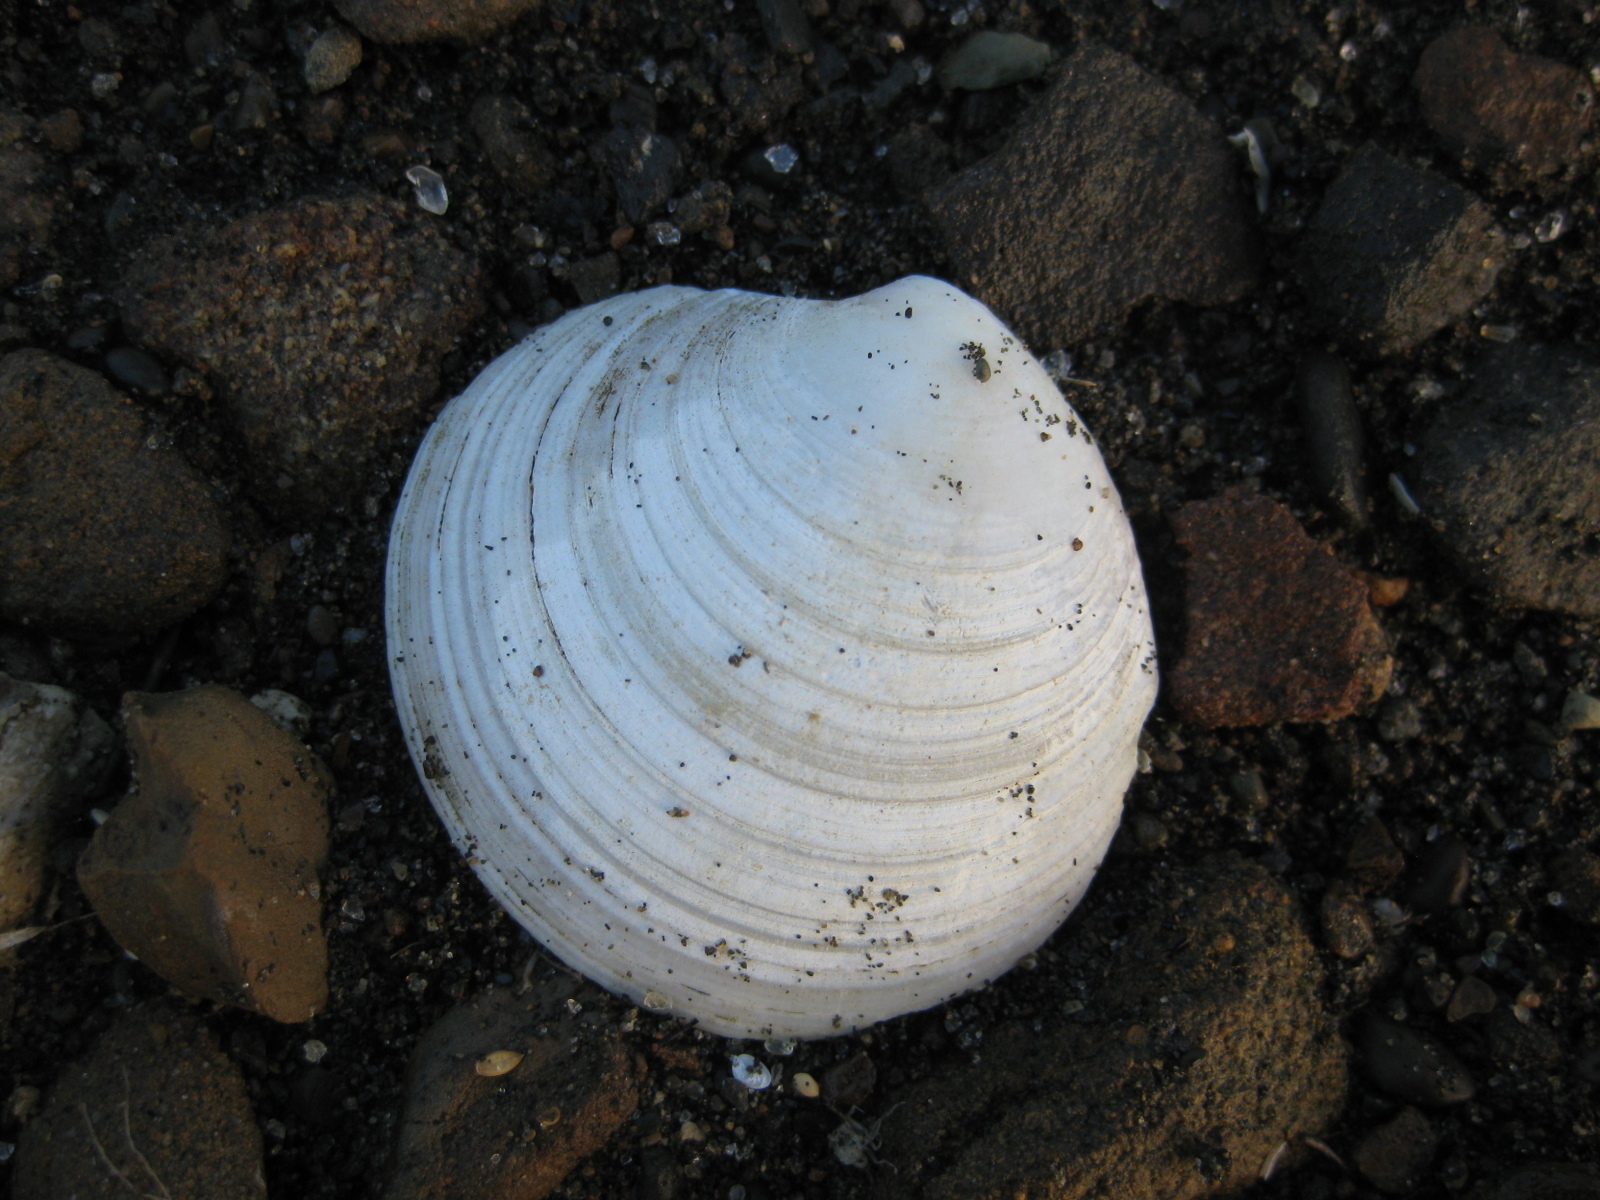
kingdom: Animalia
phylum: Mollusca
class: Bivalvia
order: Venerida
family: Veneridae
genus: Dosinia
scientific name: Dosinia lambata
